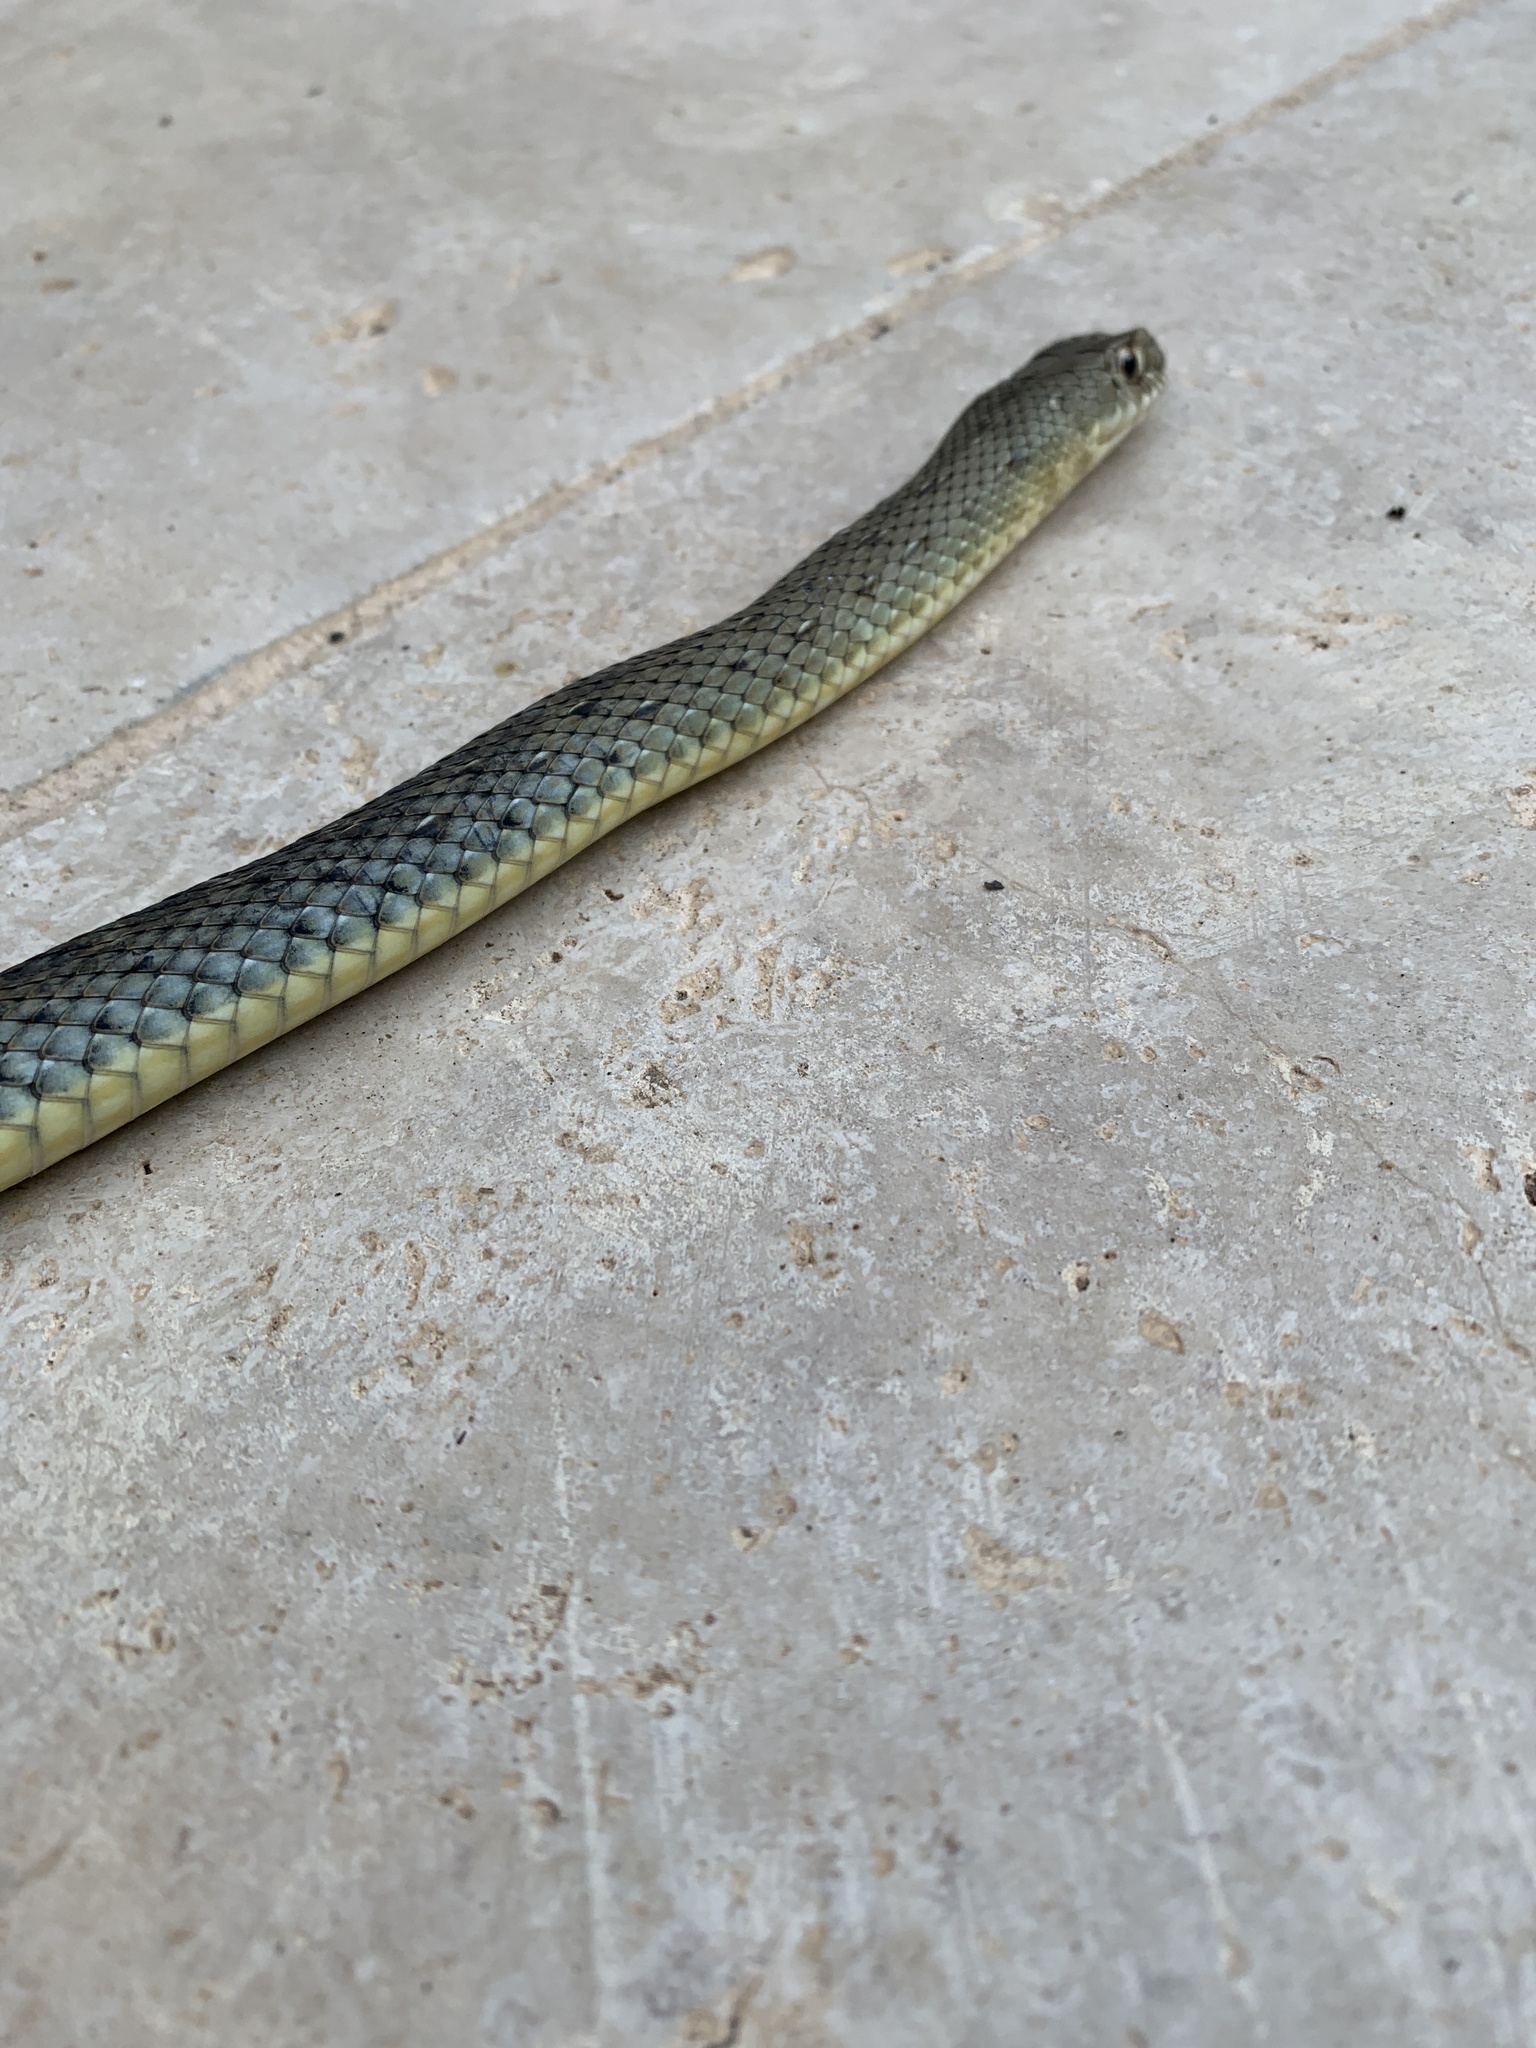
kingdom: Animalia
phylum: Chordata
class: Squamata
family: Psammophiidae
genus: Malpolon
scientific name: Malpolon monspessulanus
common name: Montpellier snake
